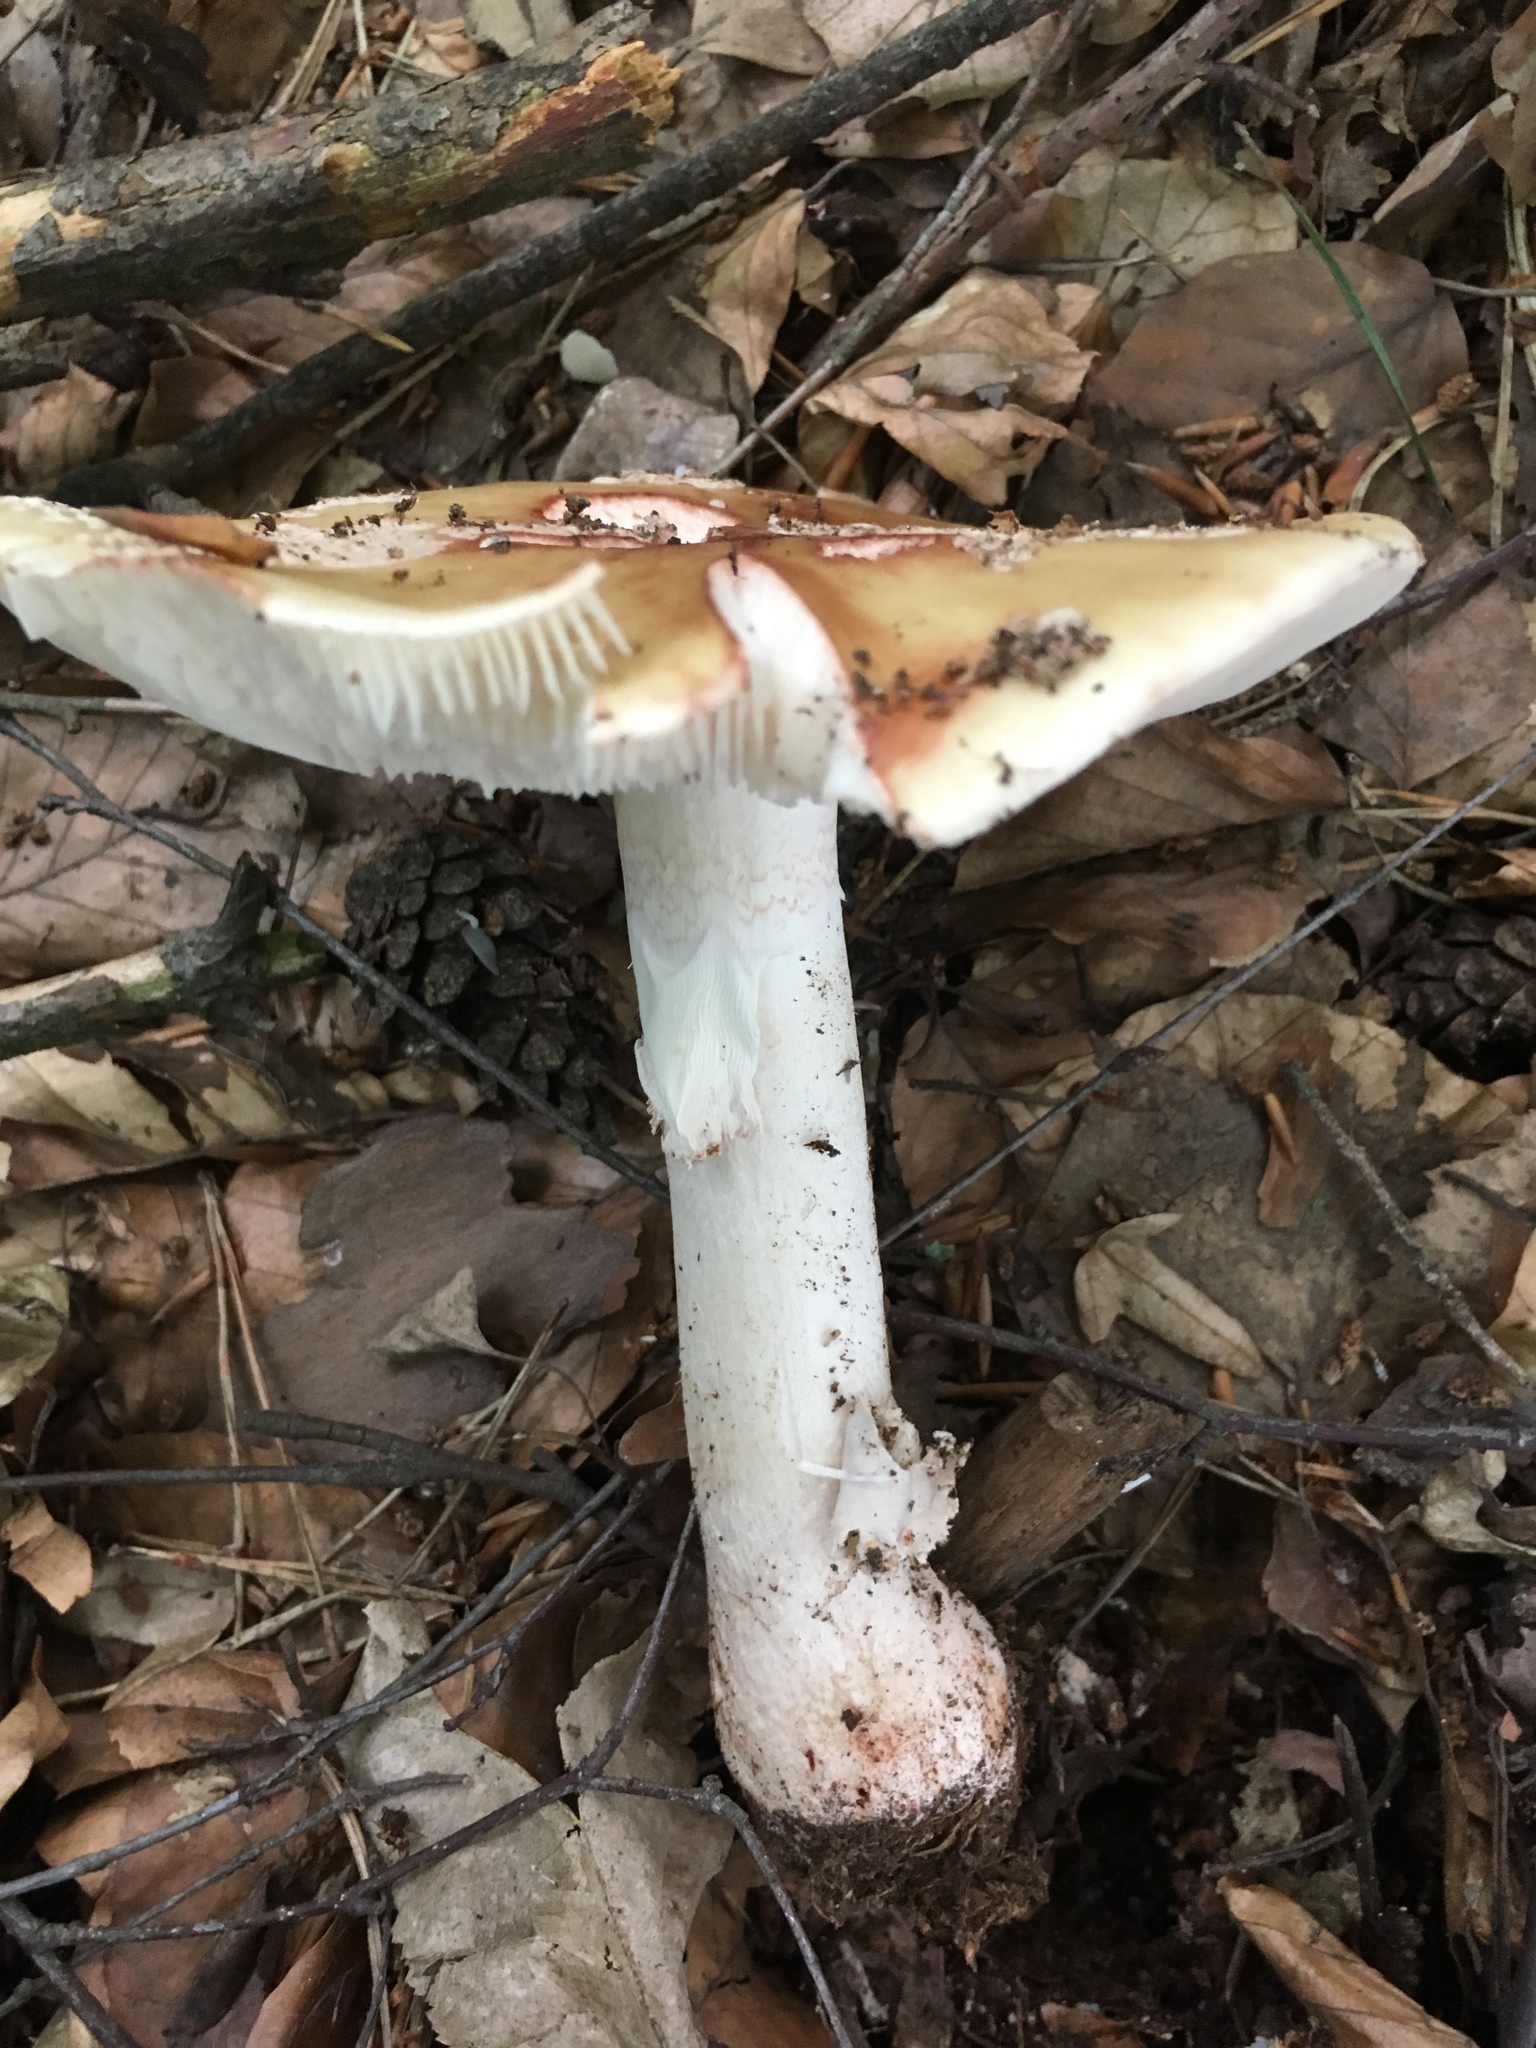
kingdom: Fungi
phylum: Basidiomycota
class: Agaricomycetes
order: Agaricales
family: Amanitaceae
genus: Amanita
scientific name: Amanita rubescens
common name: Blusher
